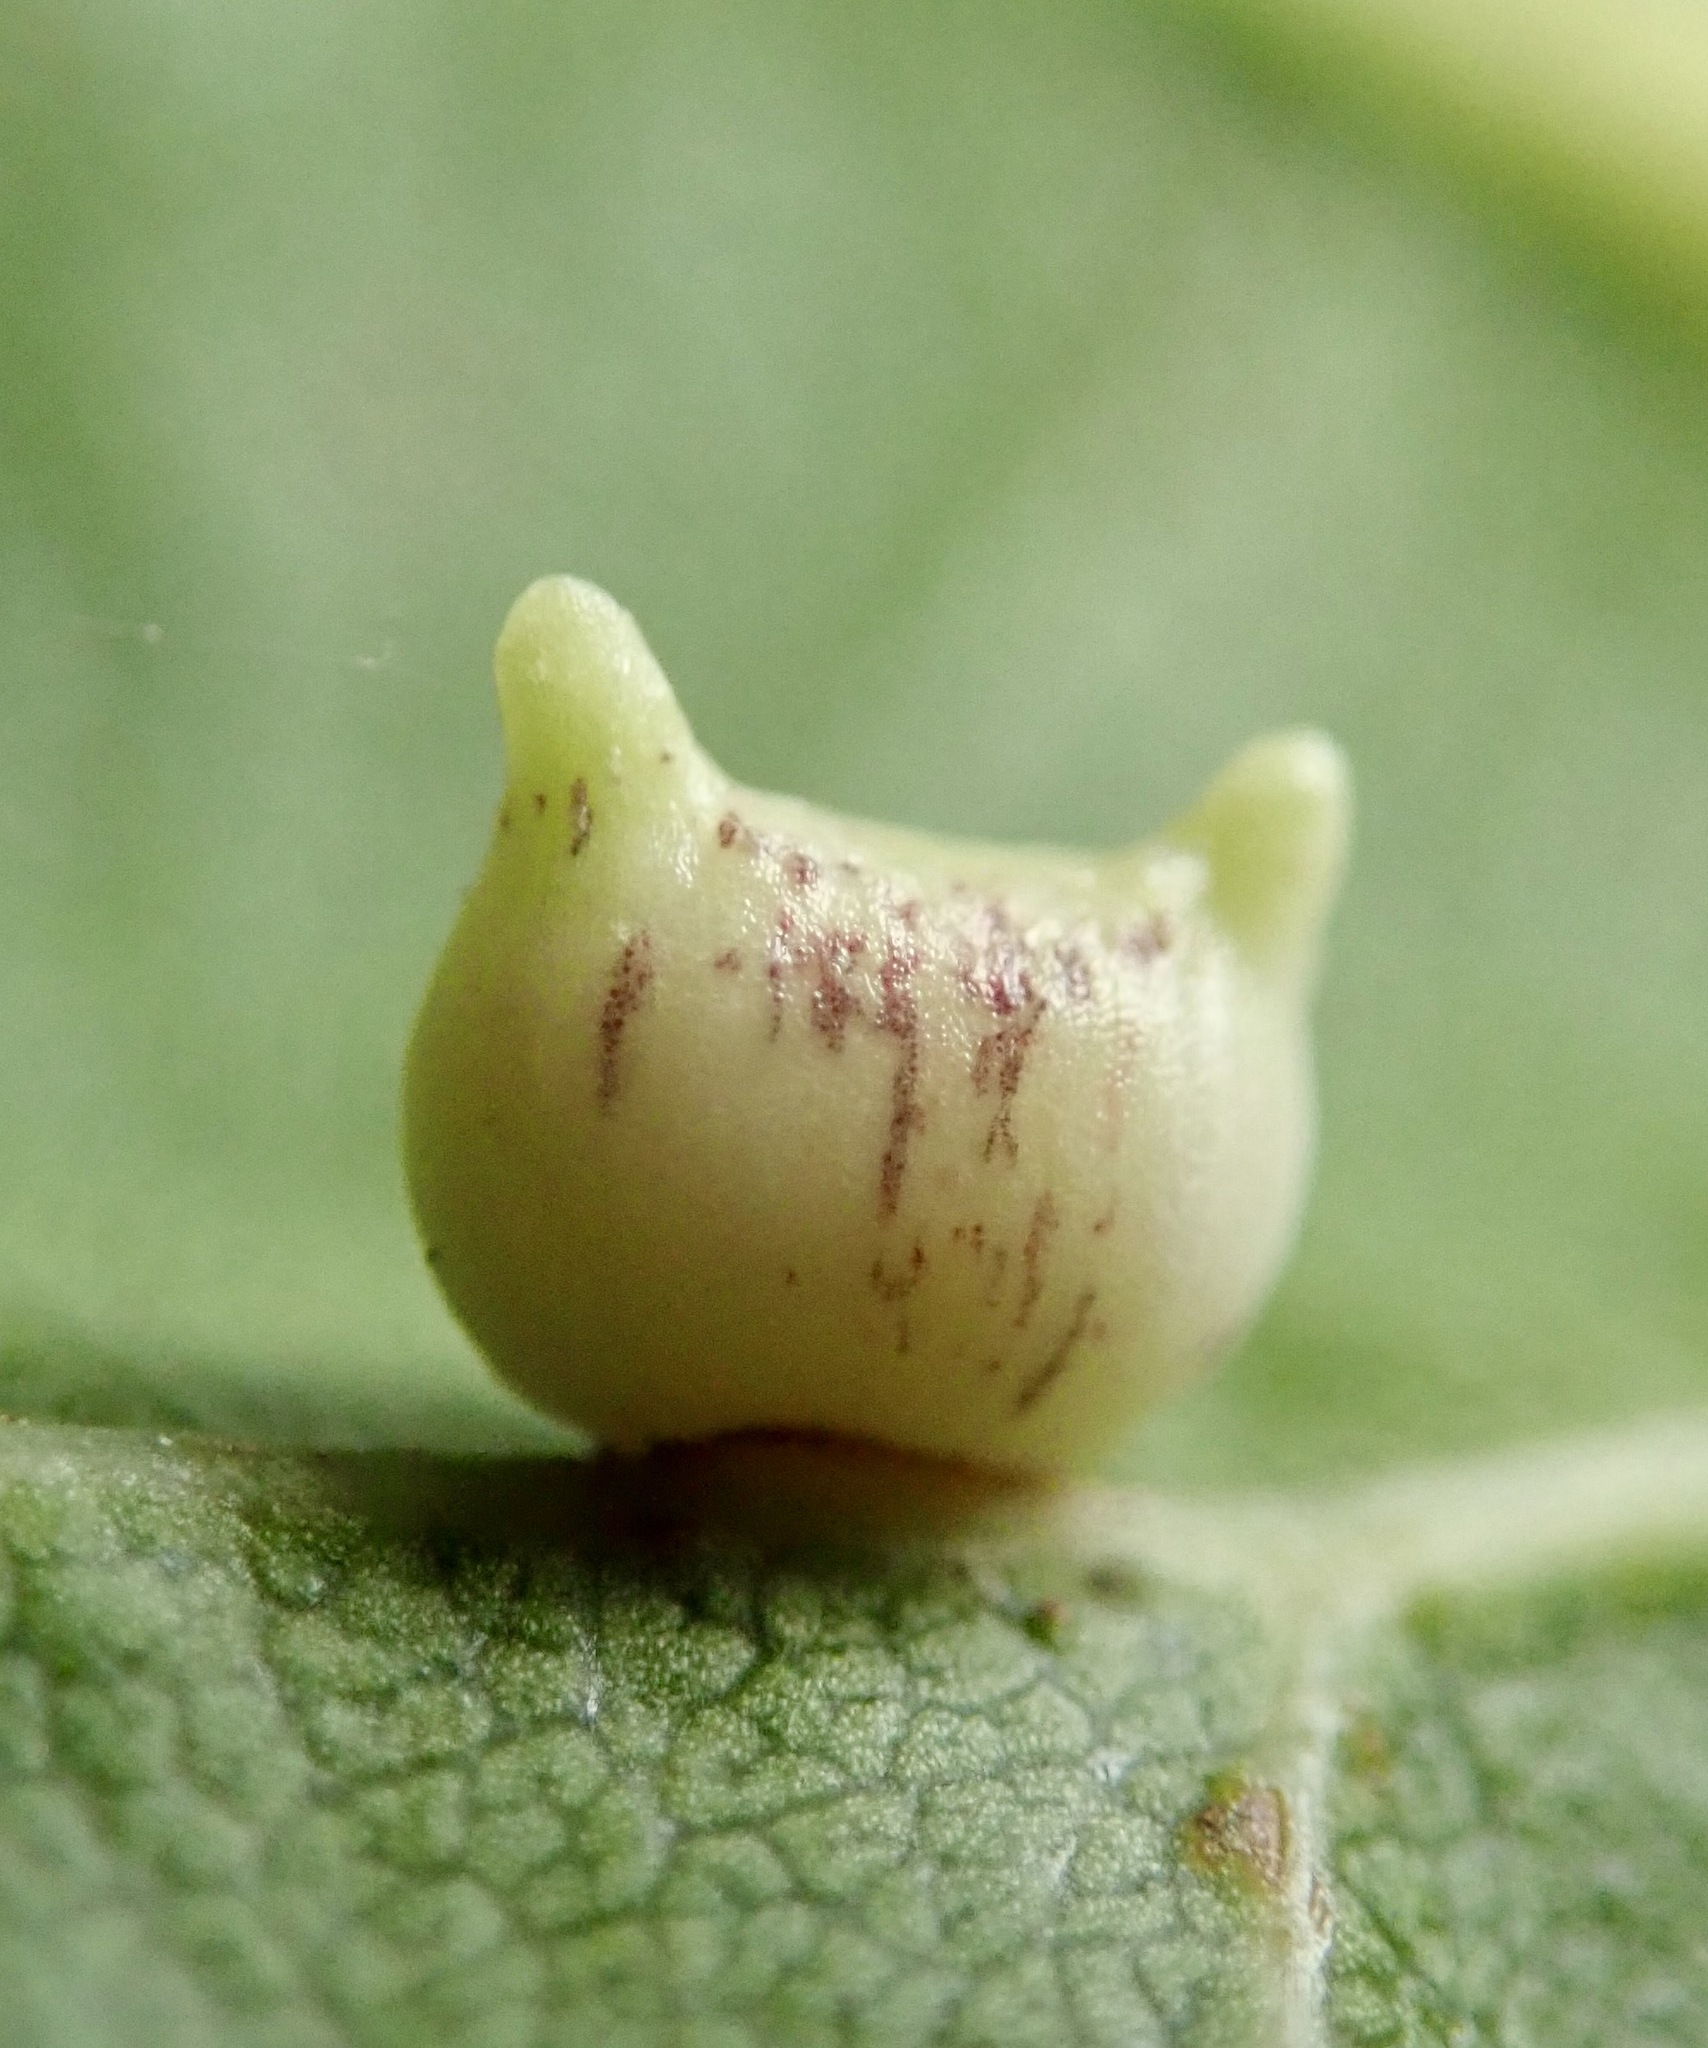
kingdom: Animalia
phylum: Arthropoda
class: Insecta
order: Hymenoptera
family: Cynipidae
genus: Dryocosmus
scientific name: Dryocosmus
